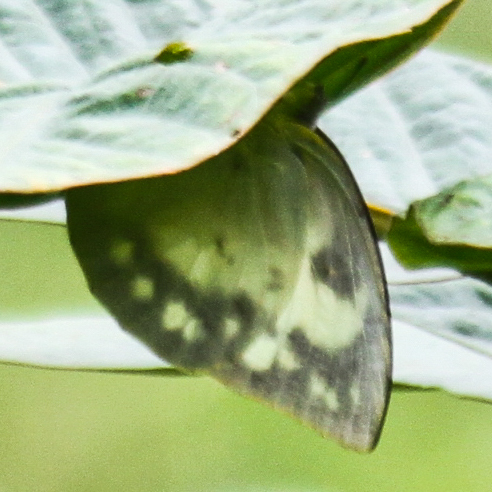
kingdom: Animalia
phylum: Arthropoda
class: Insecta
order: Lepidoptera
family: Pieridae
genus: Catopsilia
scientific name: Catopsilia pomona
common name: Common emigrant
